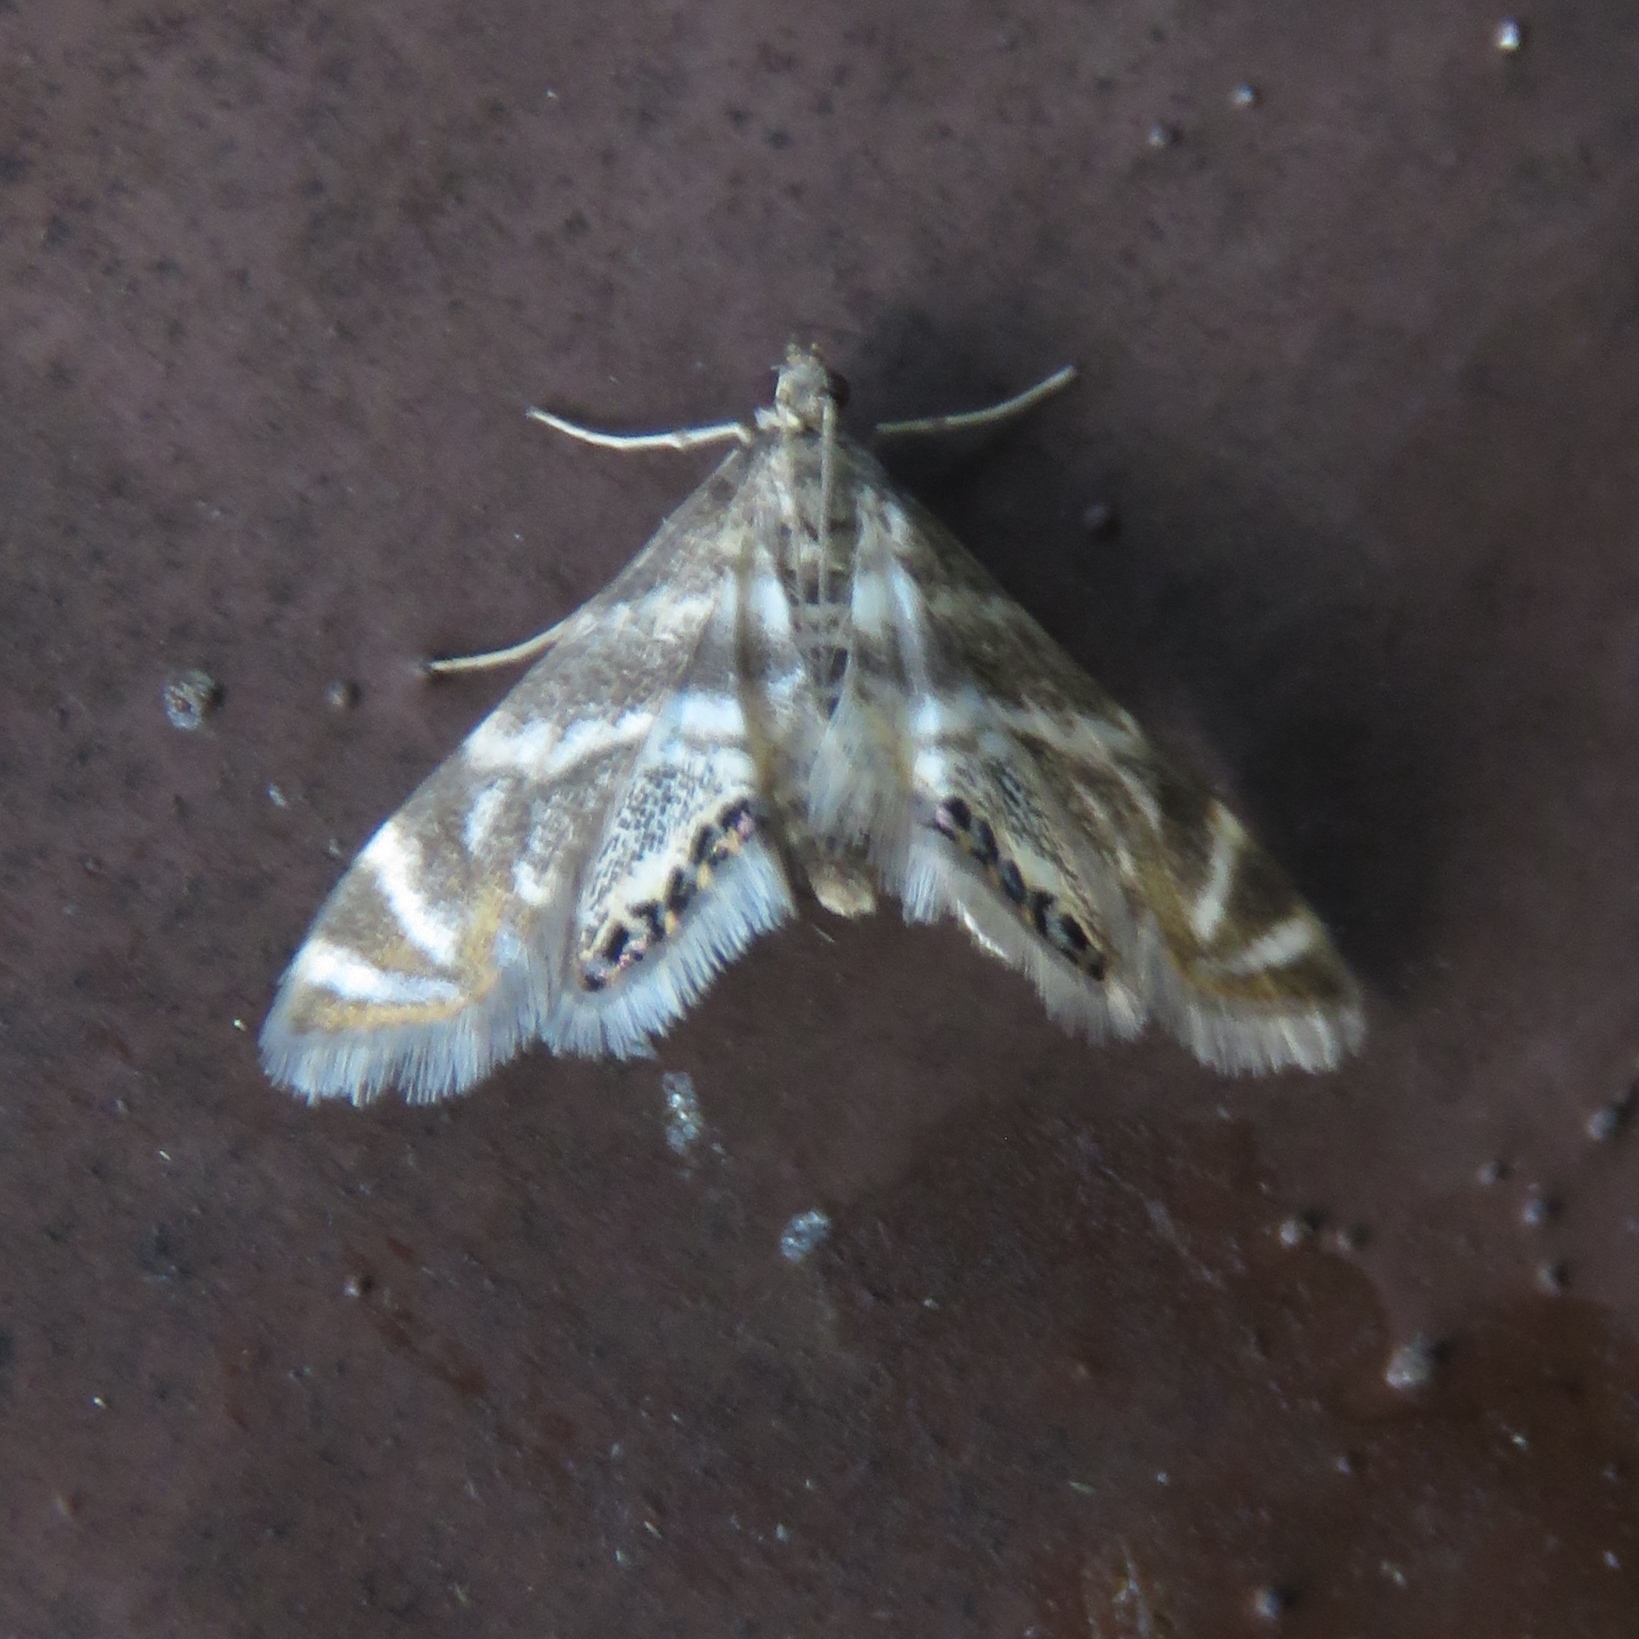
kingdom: Animalia
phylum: Arthropoda
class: Insecta
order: Lepidoptera
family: Crambidae
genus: Petrophila
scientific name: Petrophila canadensis
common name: Canadian petrophila
